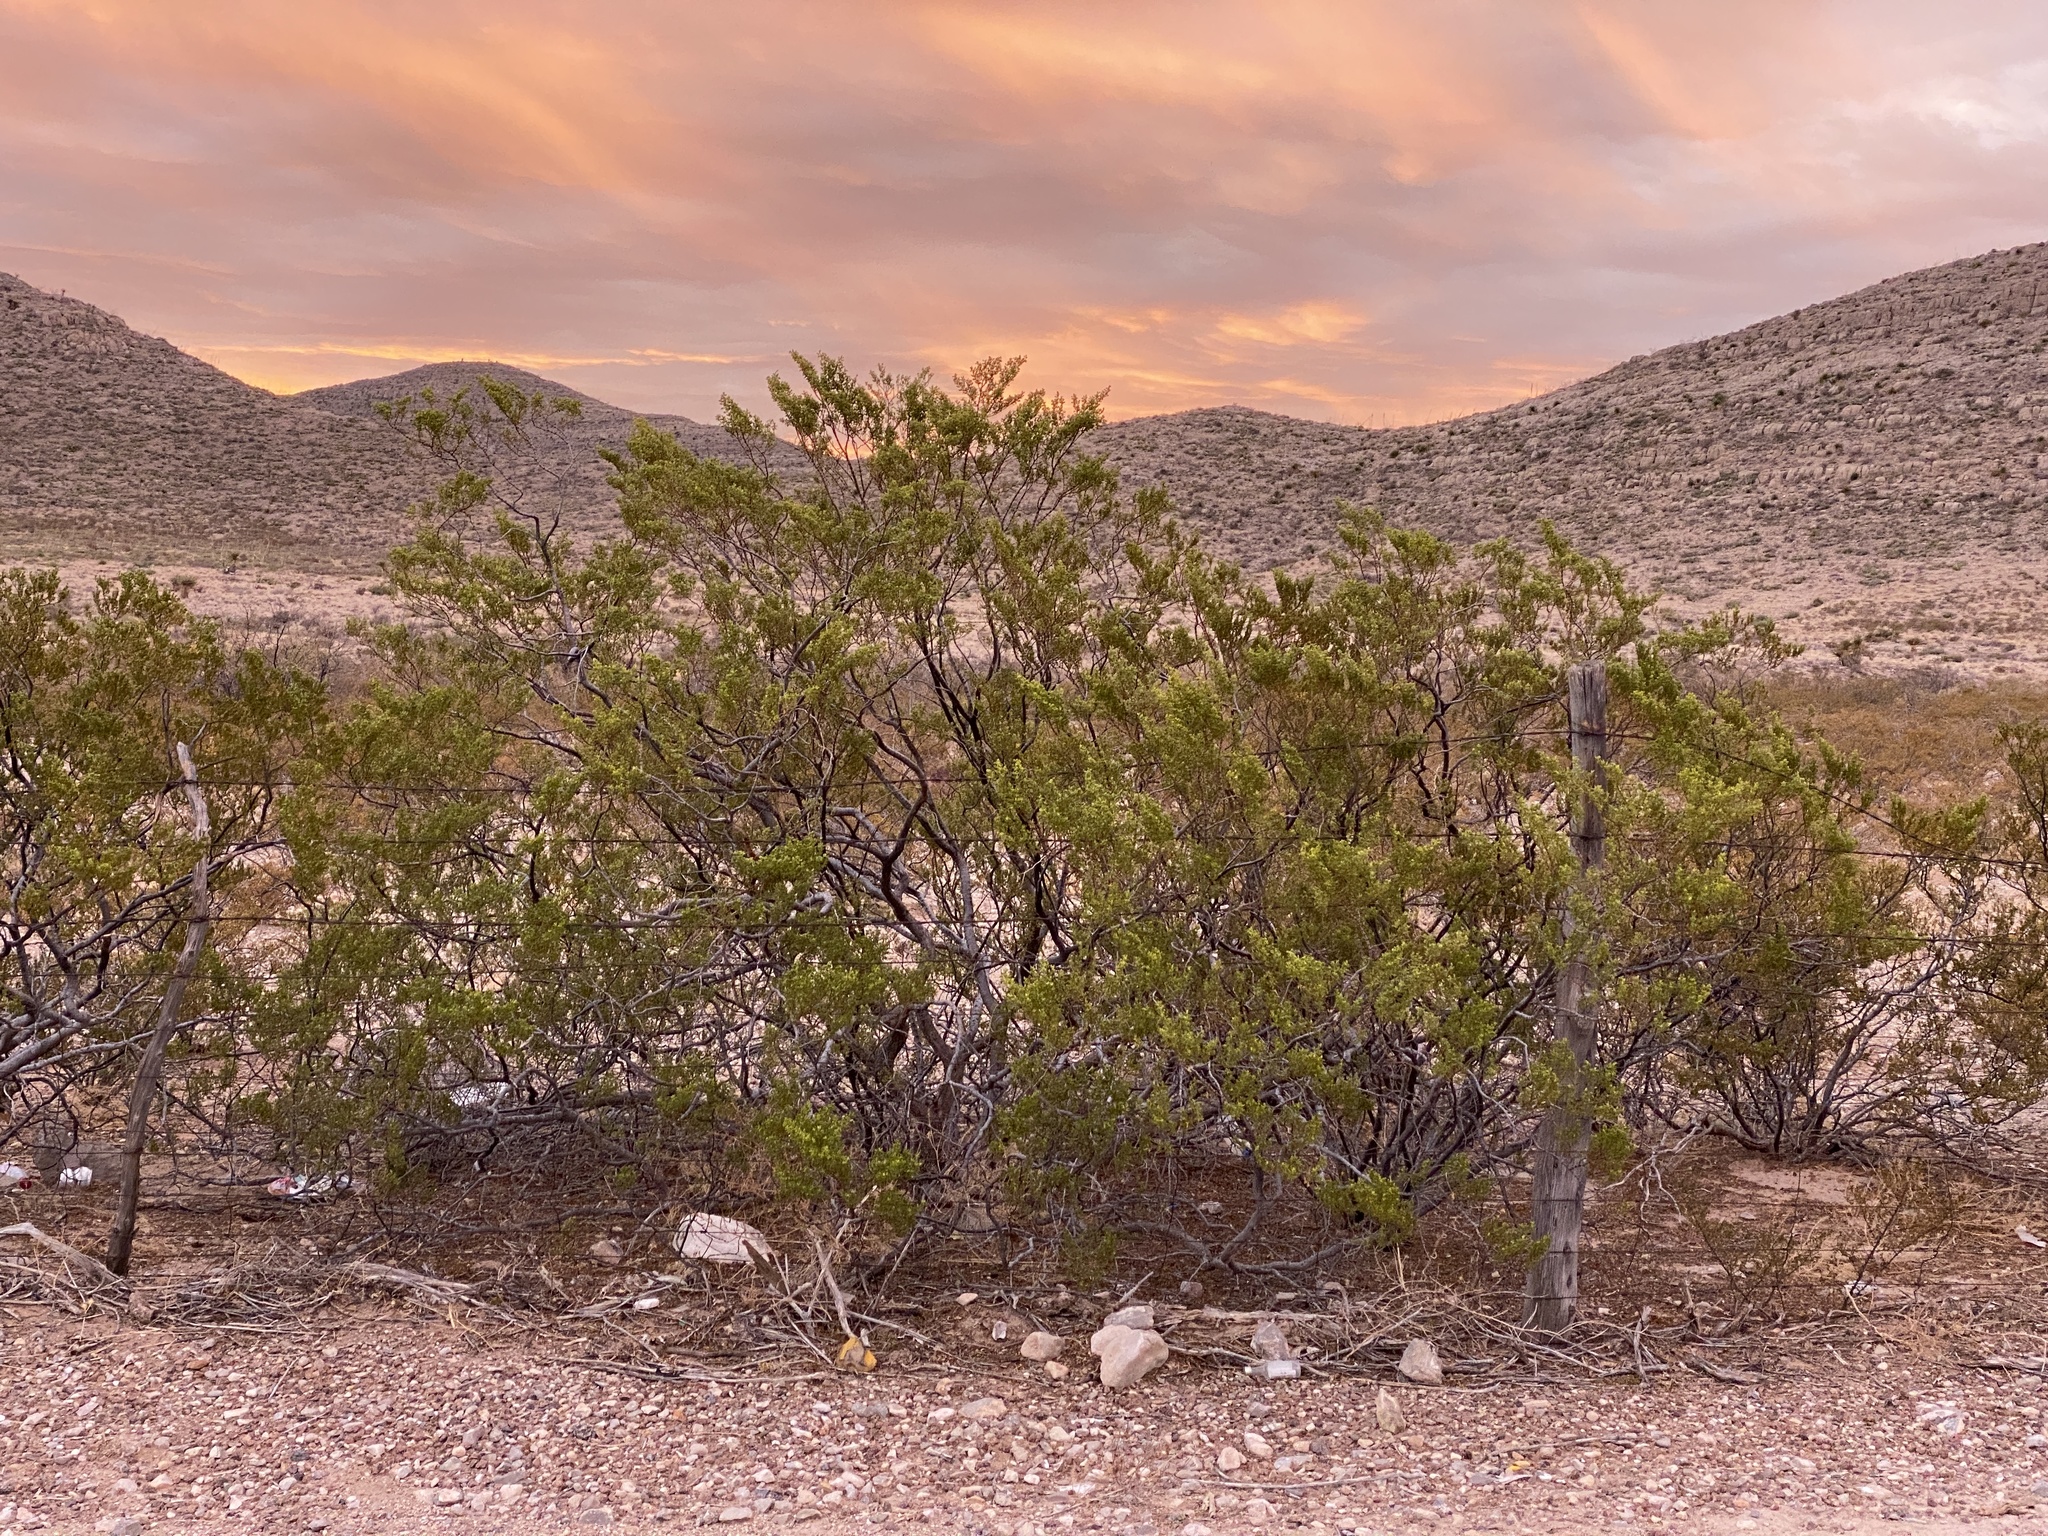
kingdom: Plantae
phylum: Tracheophyta
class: Magnoliopsida
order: Zygophyllales
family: Zygophyllaceae
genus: Larrea
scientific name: Larrea tridentata
